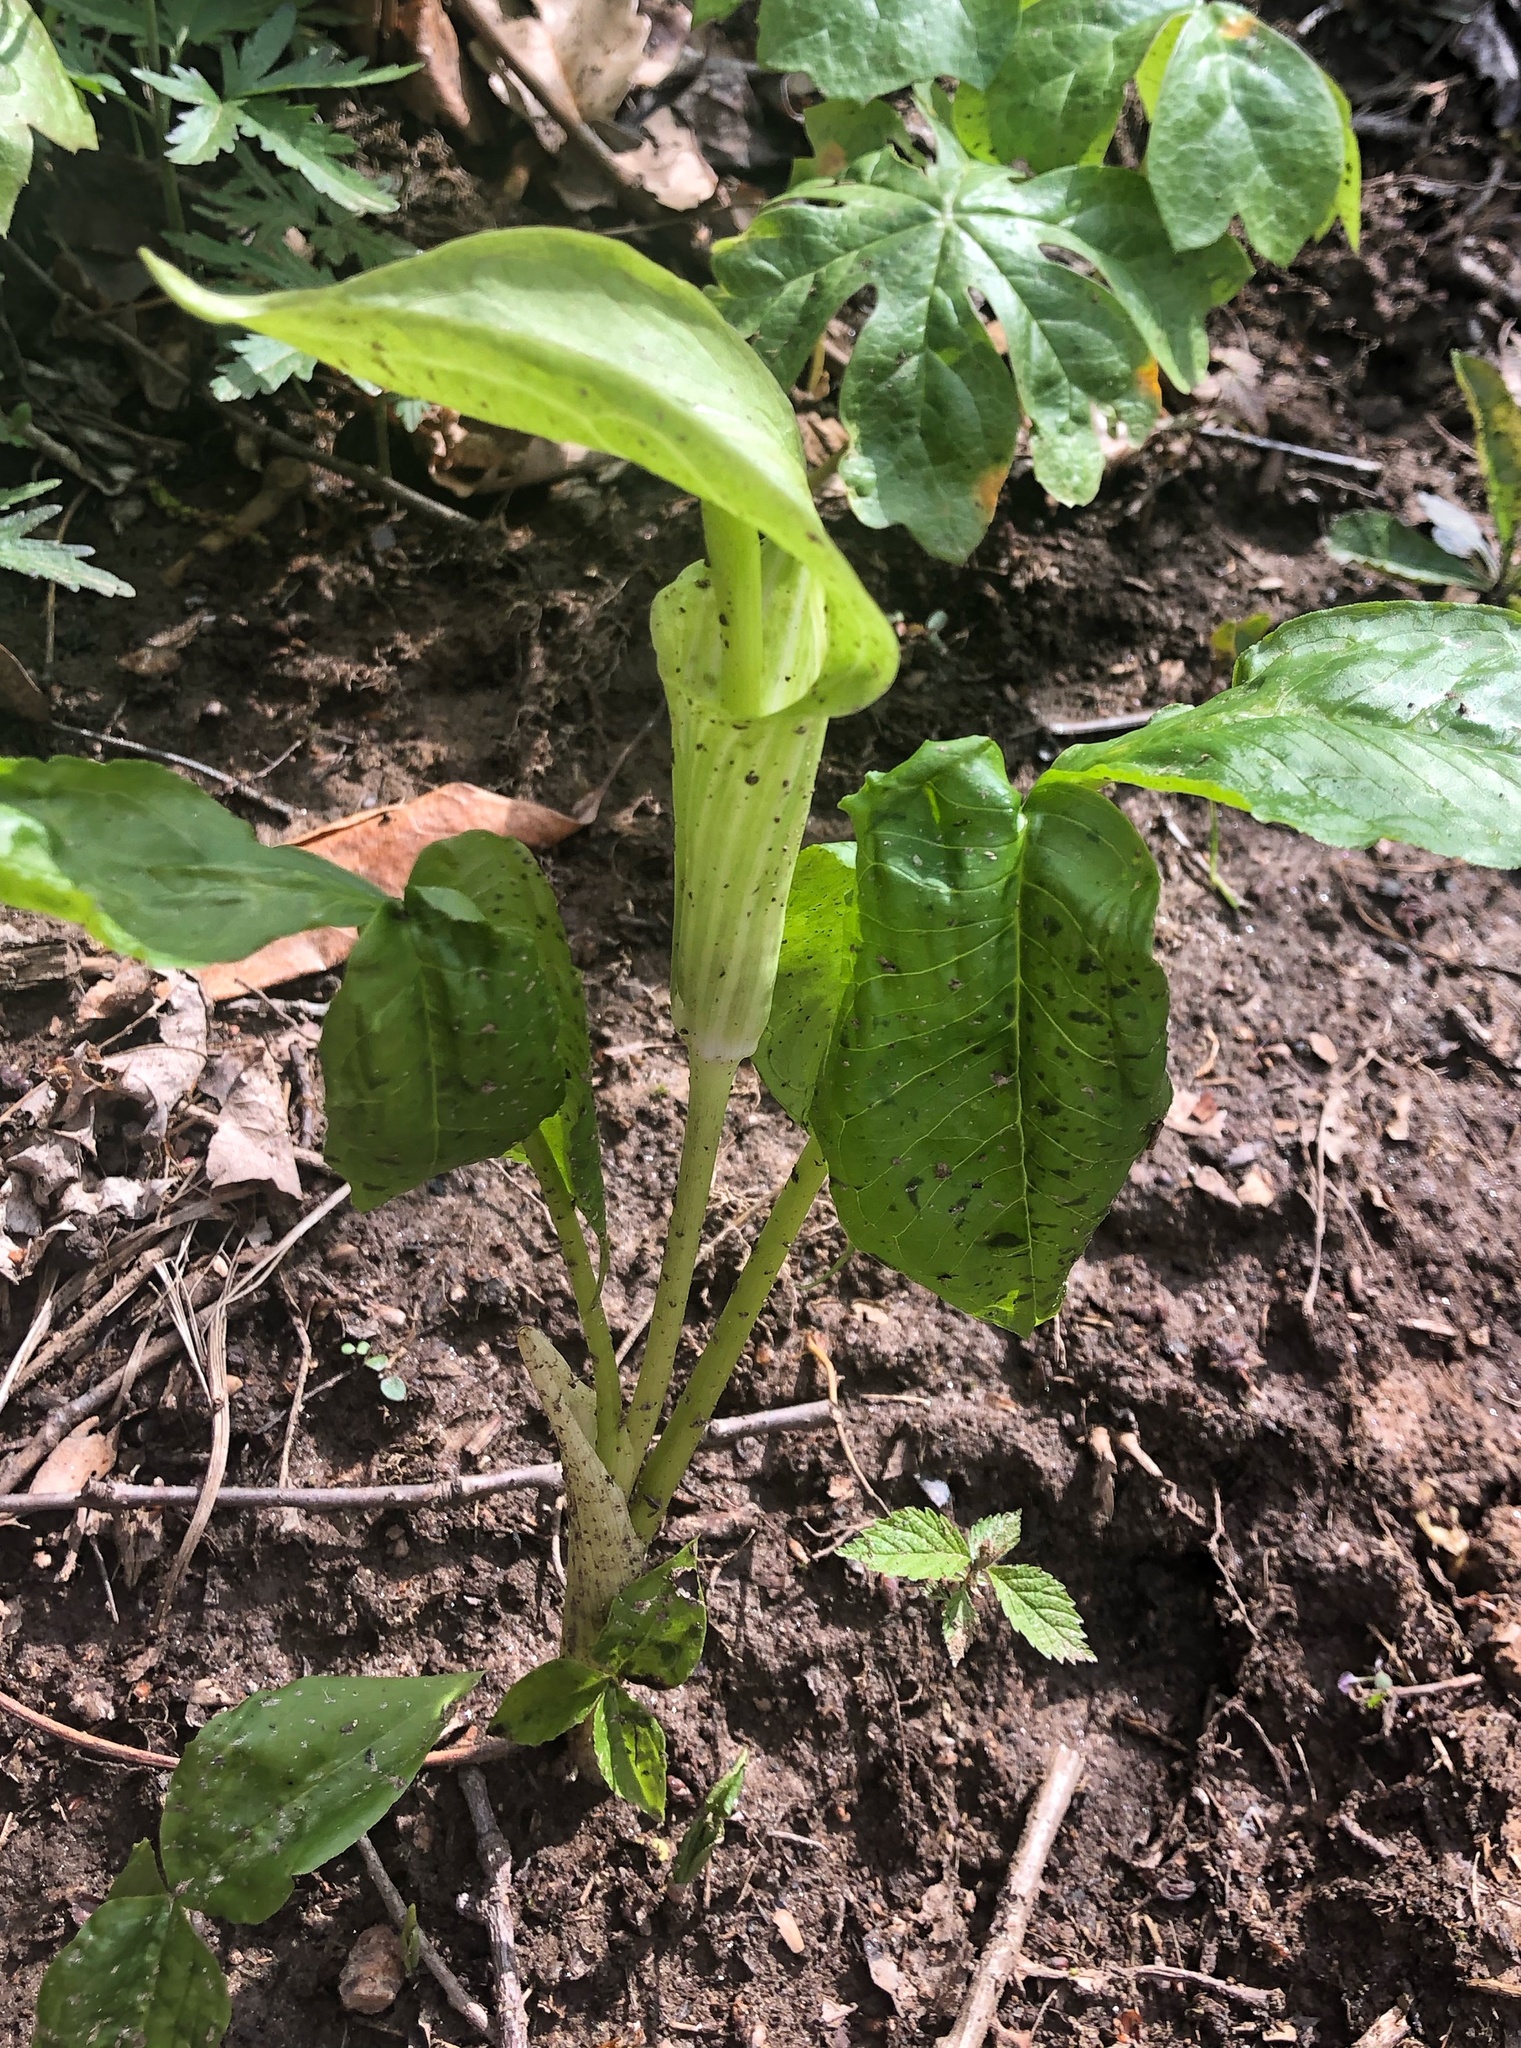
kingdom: Plantae
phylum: Tracheophyta
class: Liliopsida
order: Alismatales
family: Araceae
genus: Arisaema
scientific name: Arisaema triphyllum
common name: Jack-in-the-pulpit
